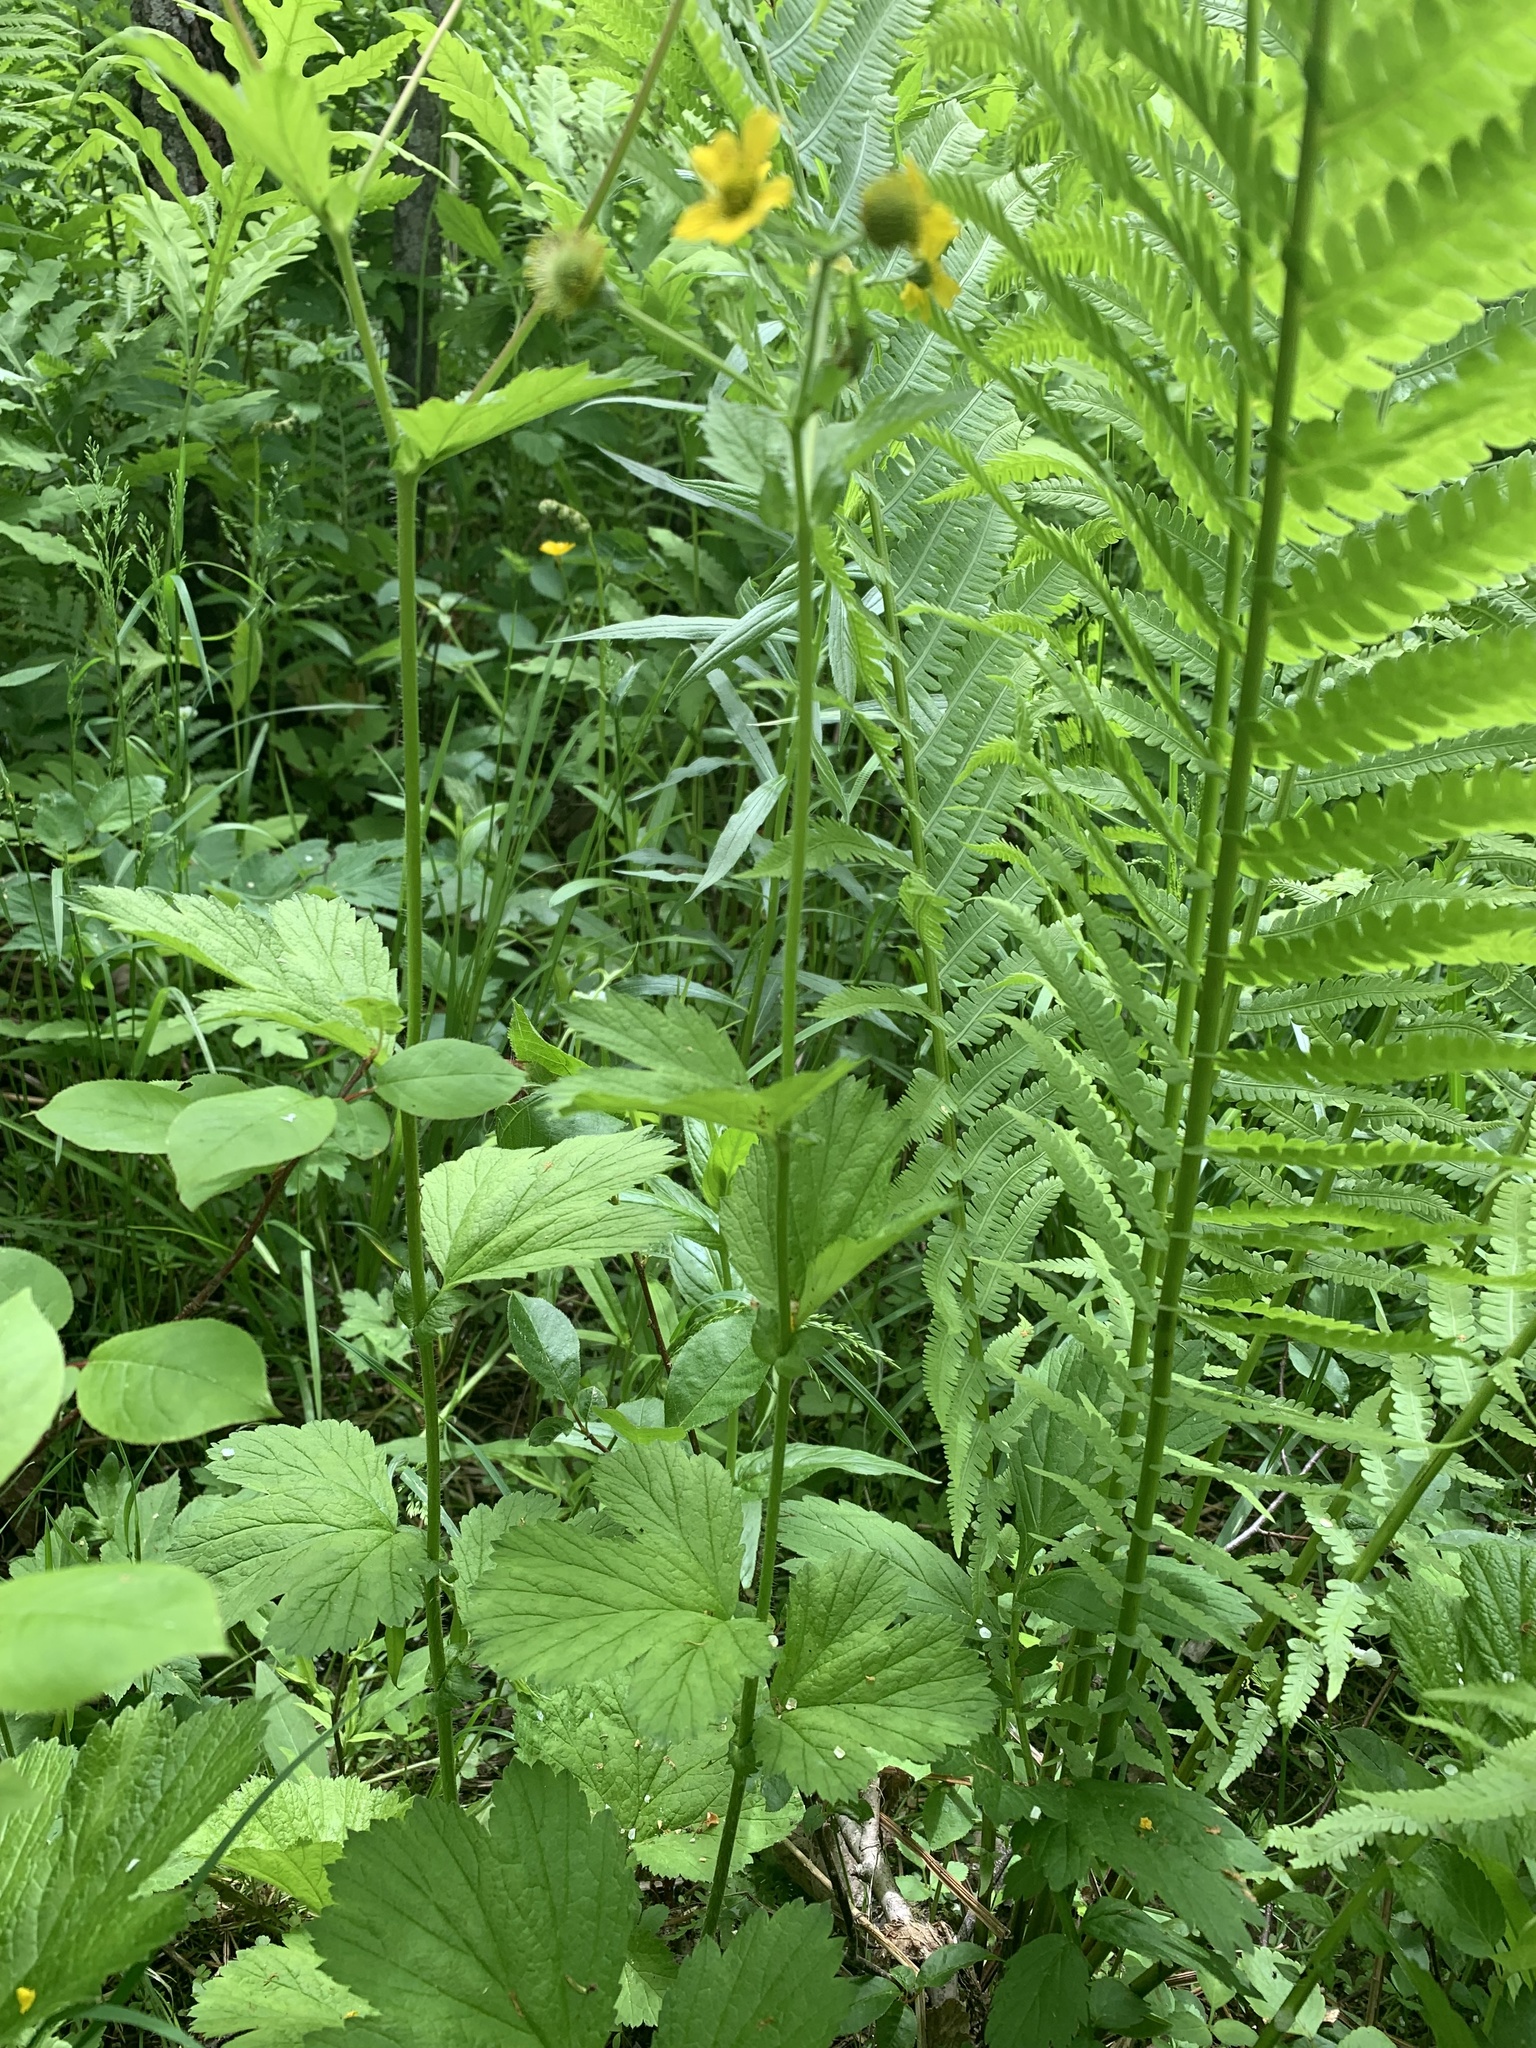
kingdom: Plantae
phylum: Tracheophyta
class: Magnoliopsida
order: Rosales
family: Rosaceae
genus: Geum
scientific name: Geum macrophyllum
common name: Large-leaved avens
